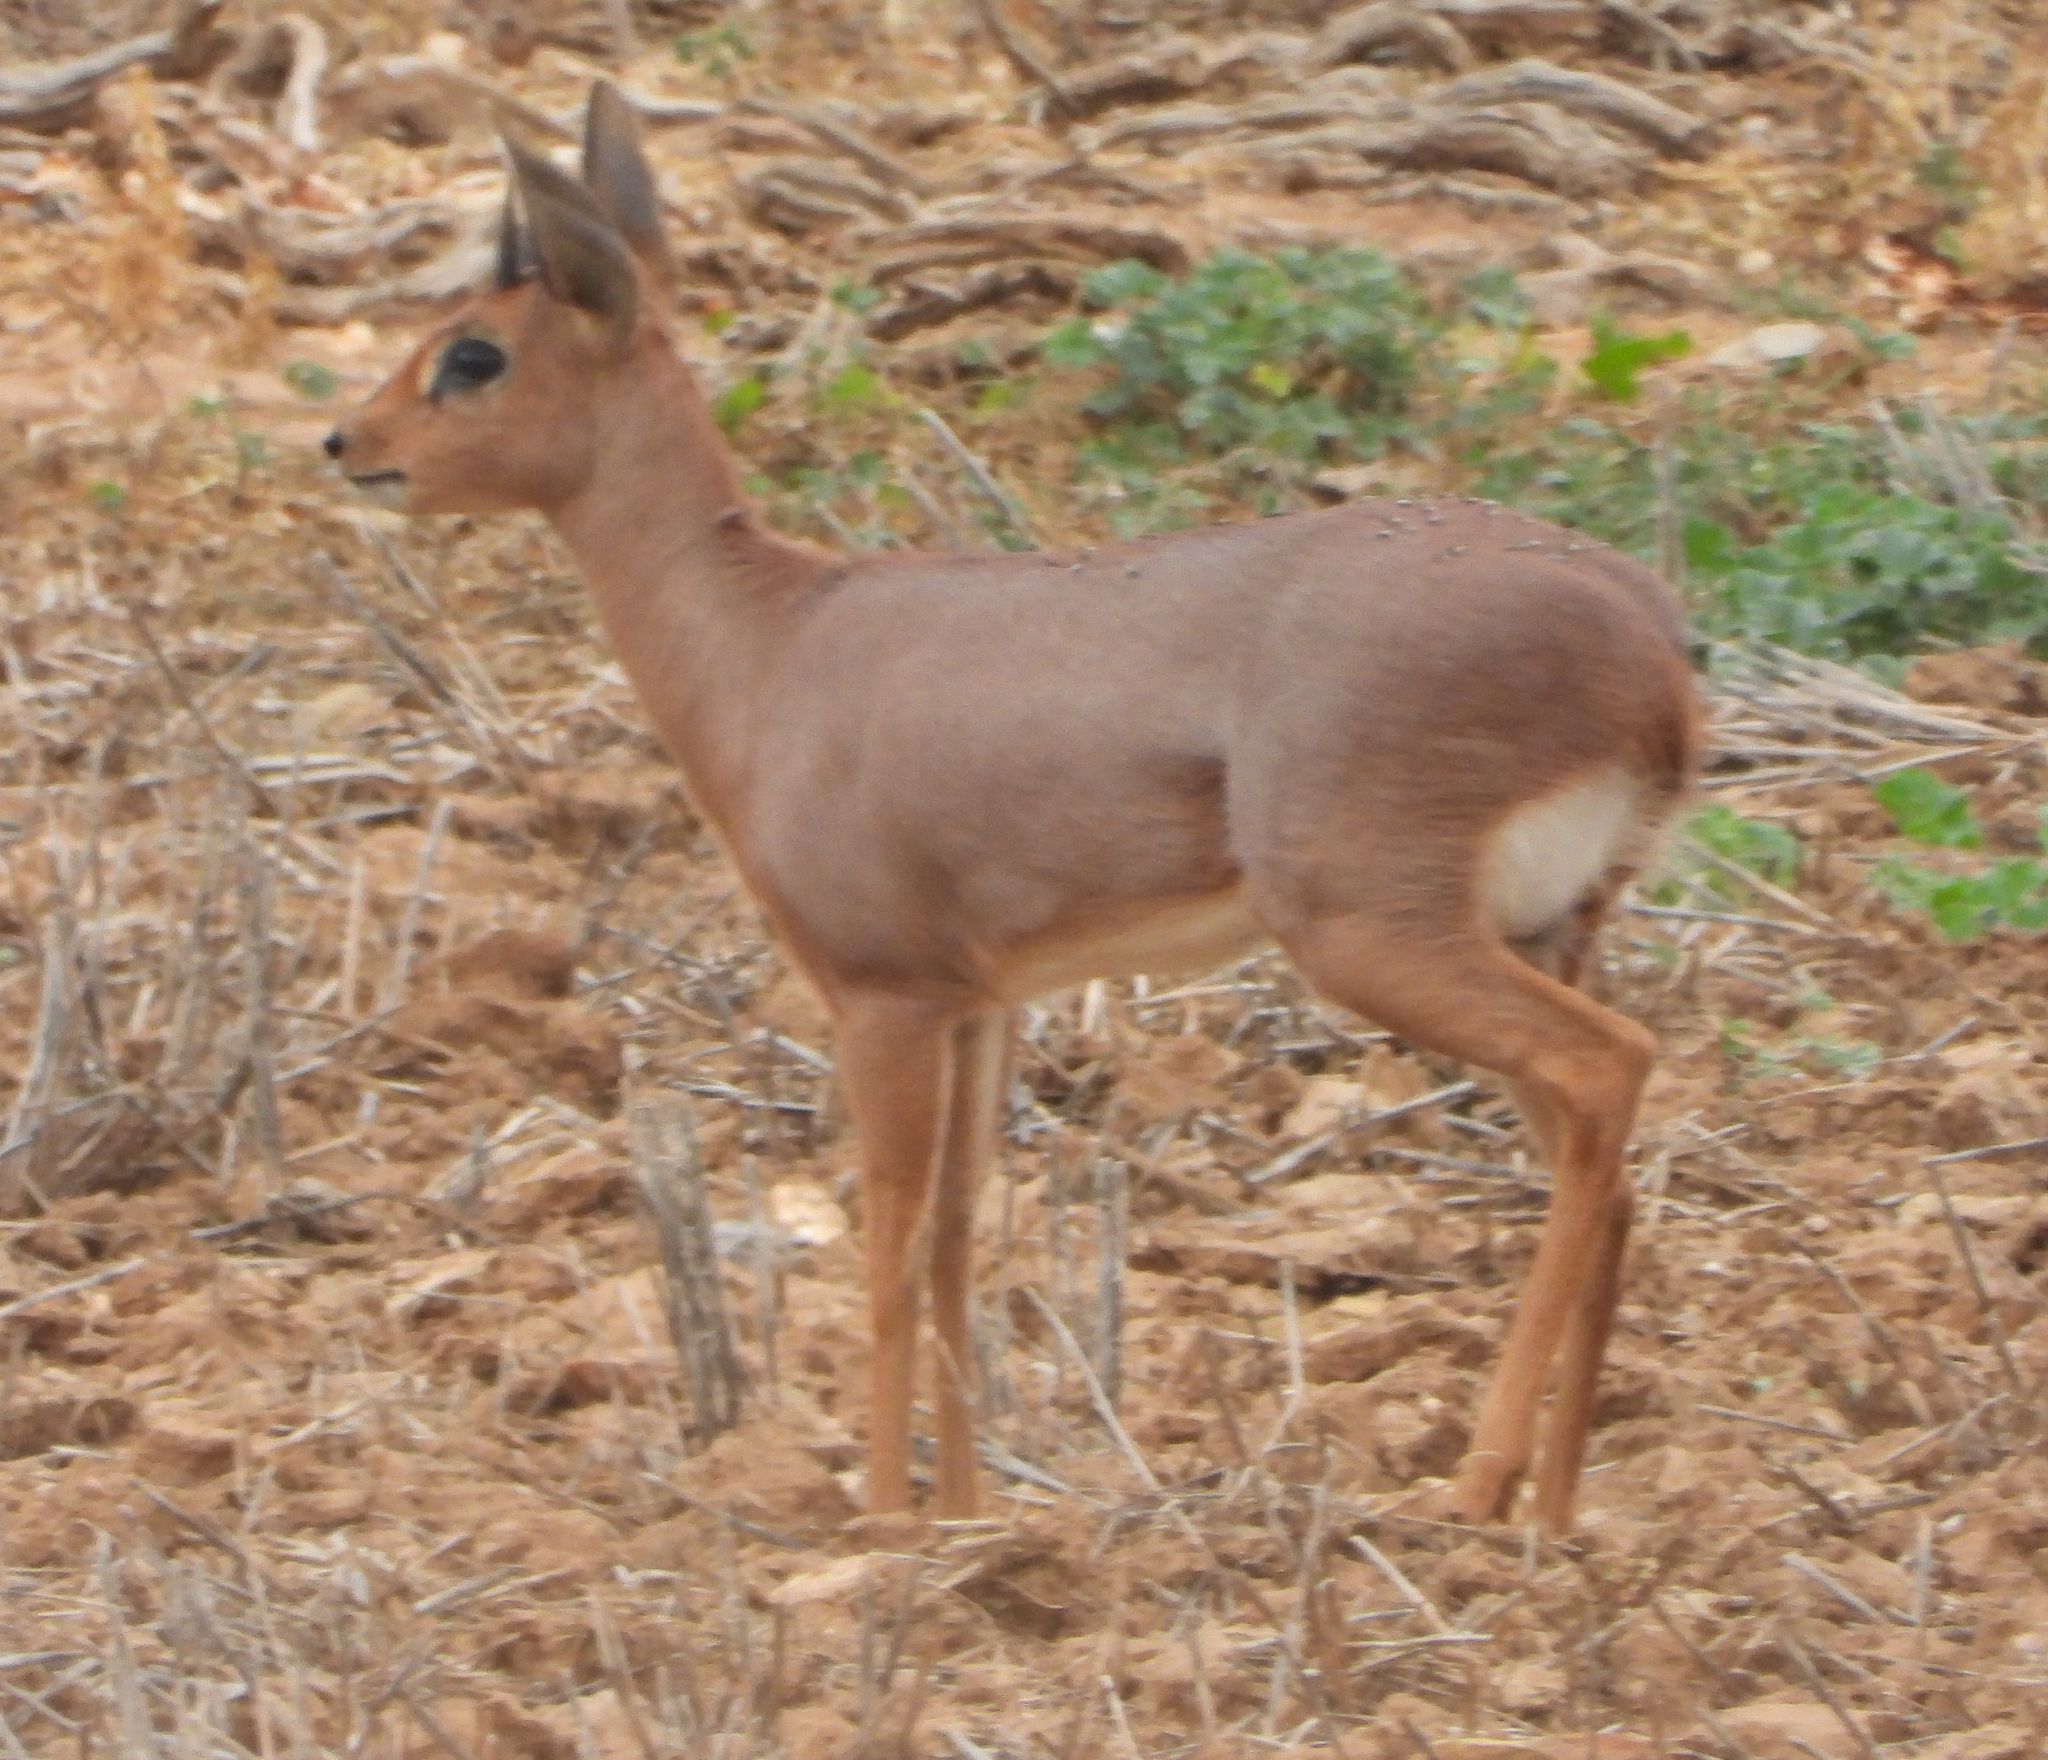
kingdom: Animalia
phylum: Chordata
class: Mammalia
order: Artiodactyla
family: Bovidae
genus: Raphicerus
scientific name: Raphicerus campestris
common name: Steenbok
